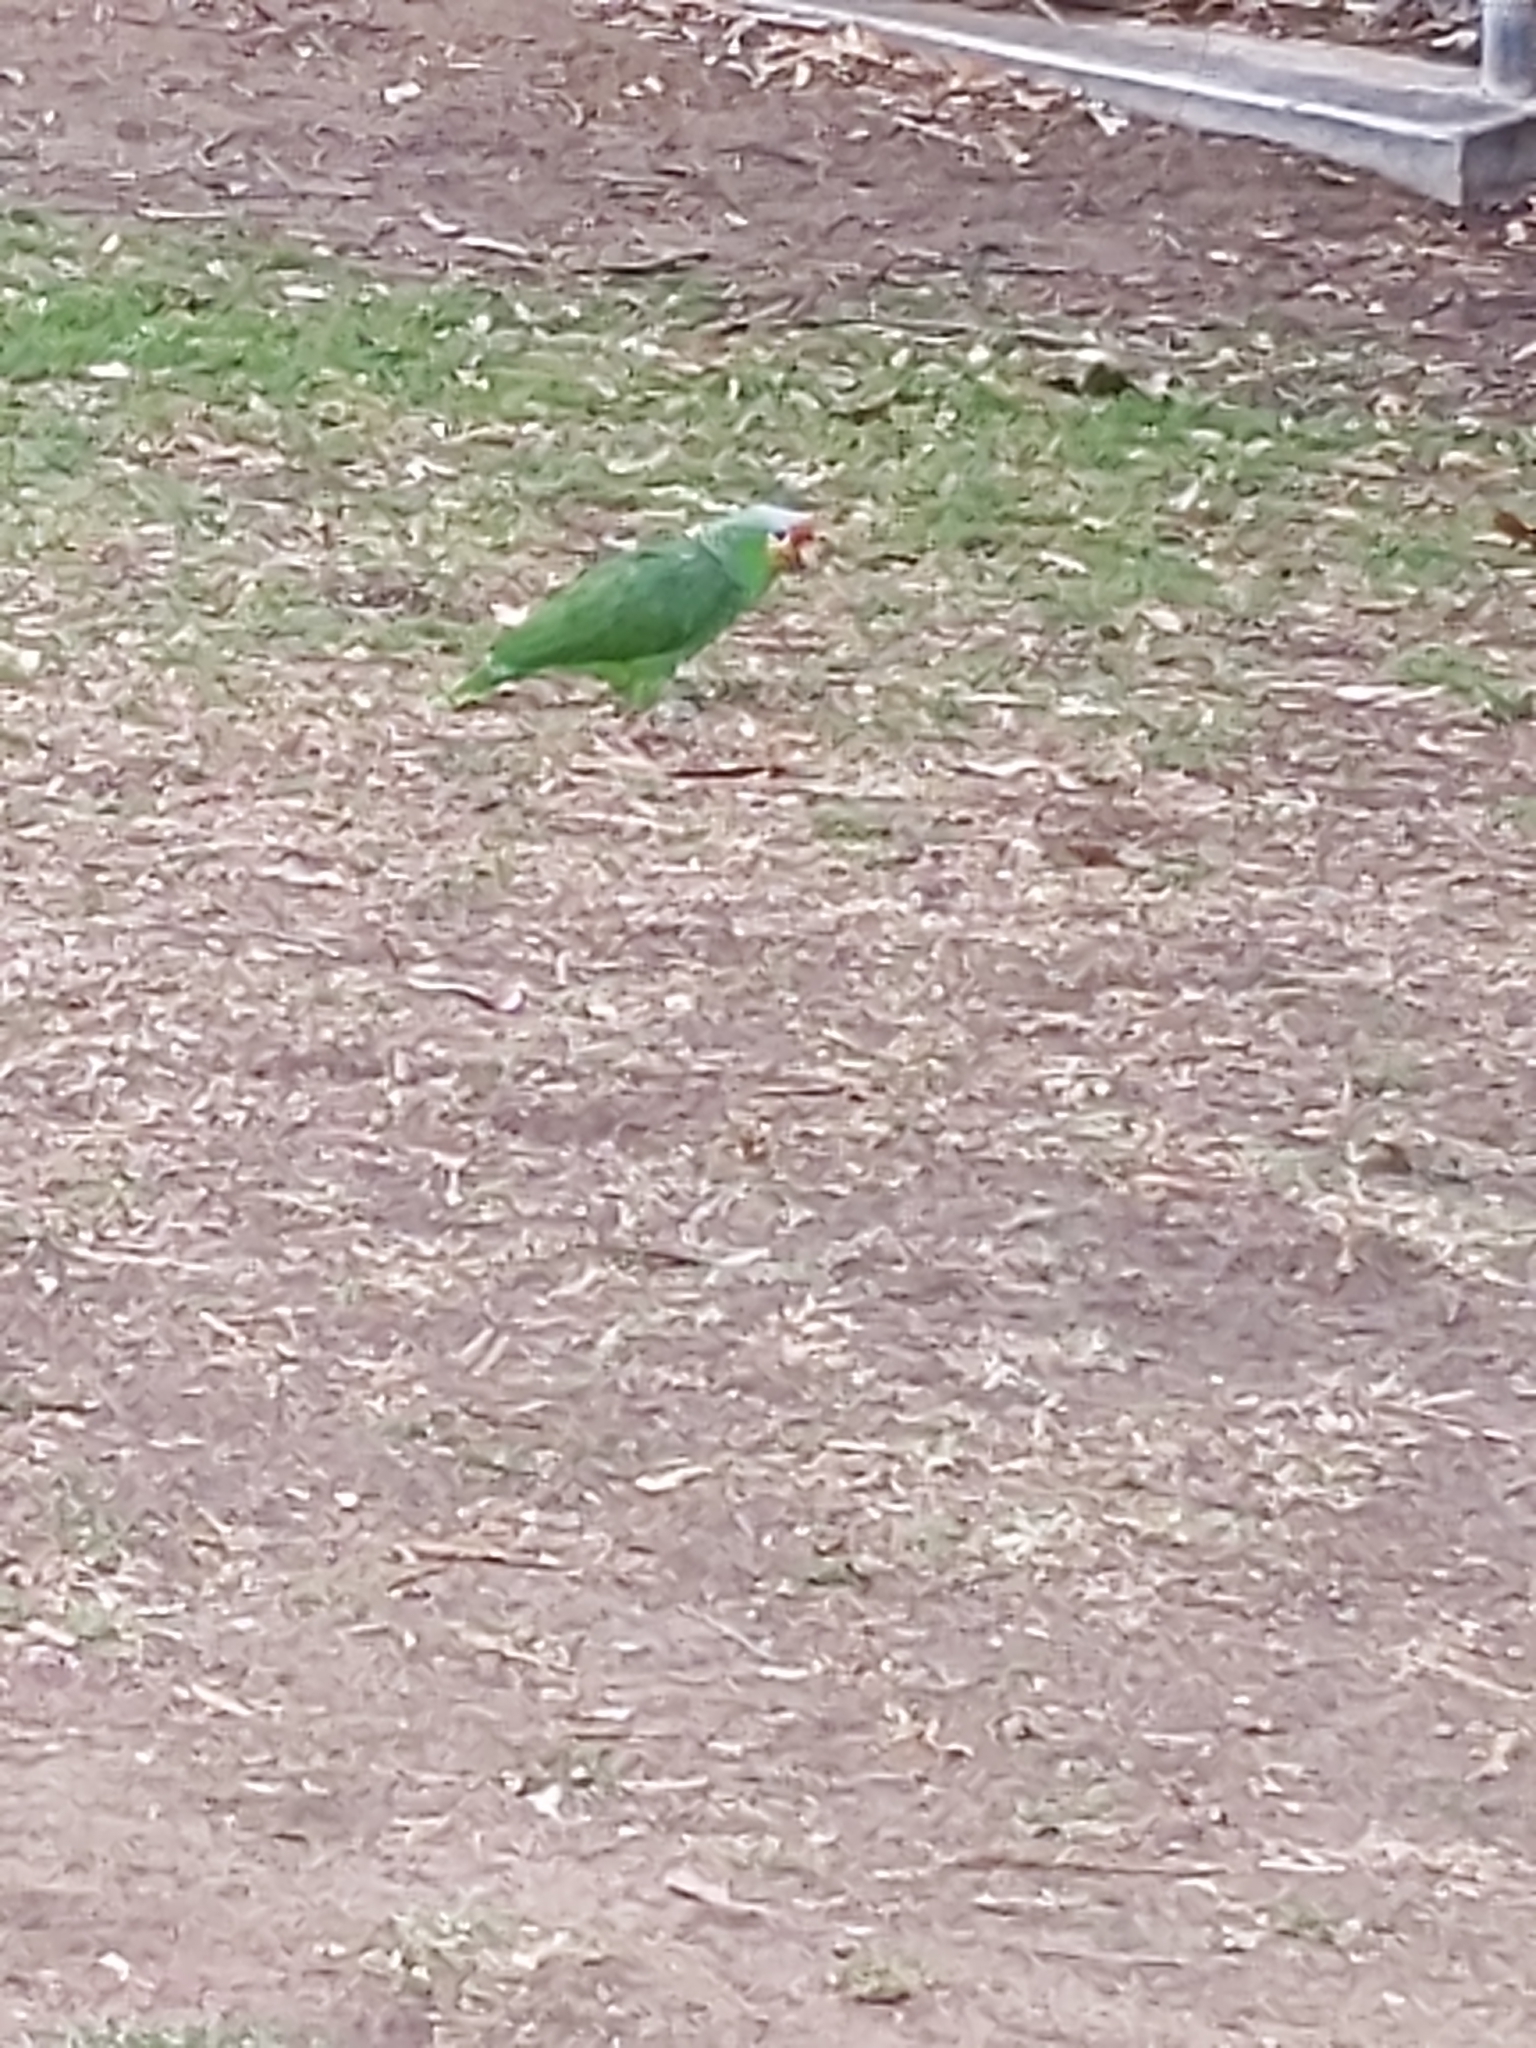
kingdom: Animalia
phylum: Chordata
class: Aves
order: Psittaciformes
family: Psittacidae
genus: Amazona
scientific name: Amazona autumnalis
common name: Red-lored amazon
